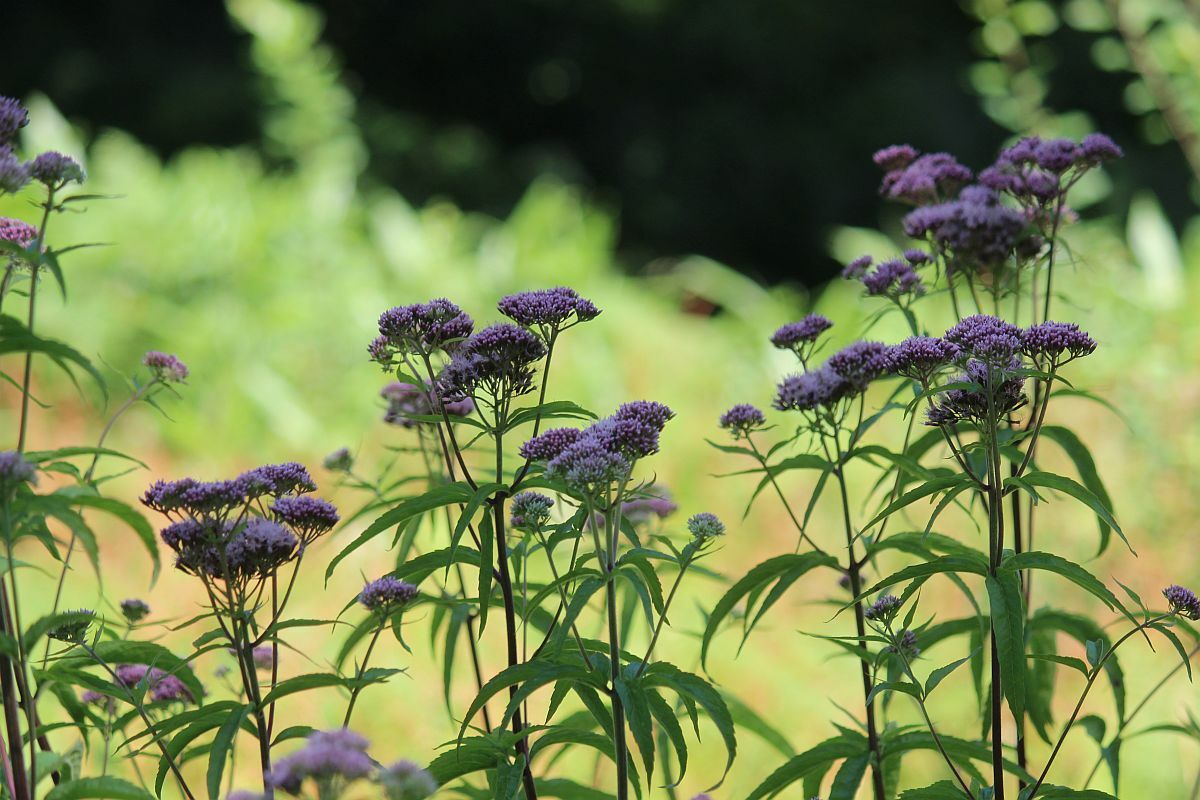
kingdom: Plantae
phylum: Tracheophyta
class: Magnoliopsida
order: Asterales
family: Asteraceae
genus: Eupatorium
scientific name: Eupatorium cannabinum
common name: Hemp-agrimony
